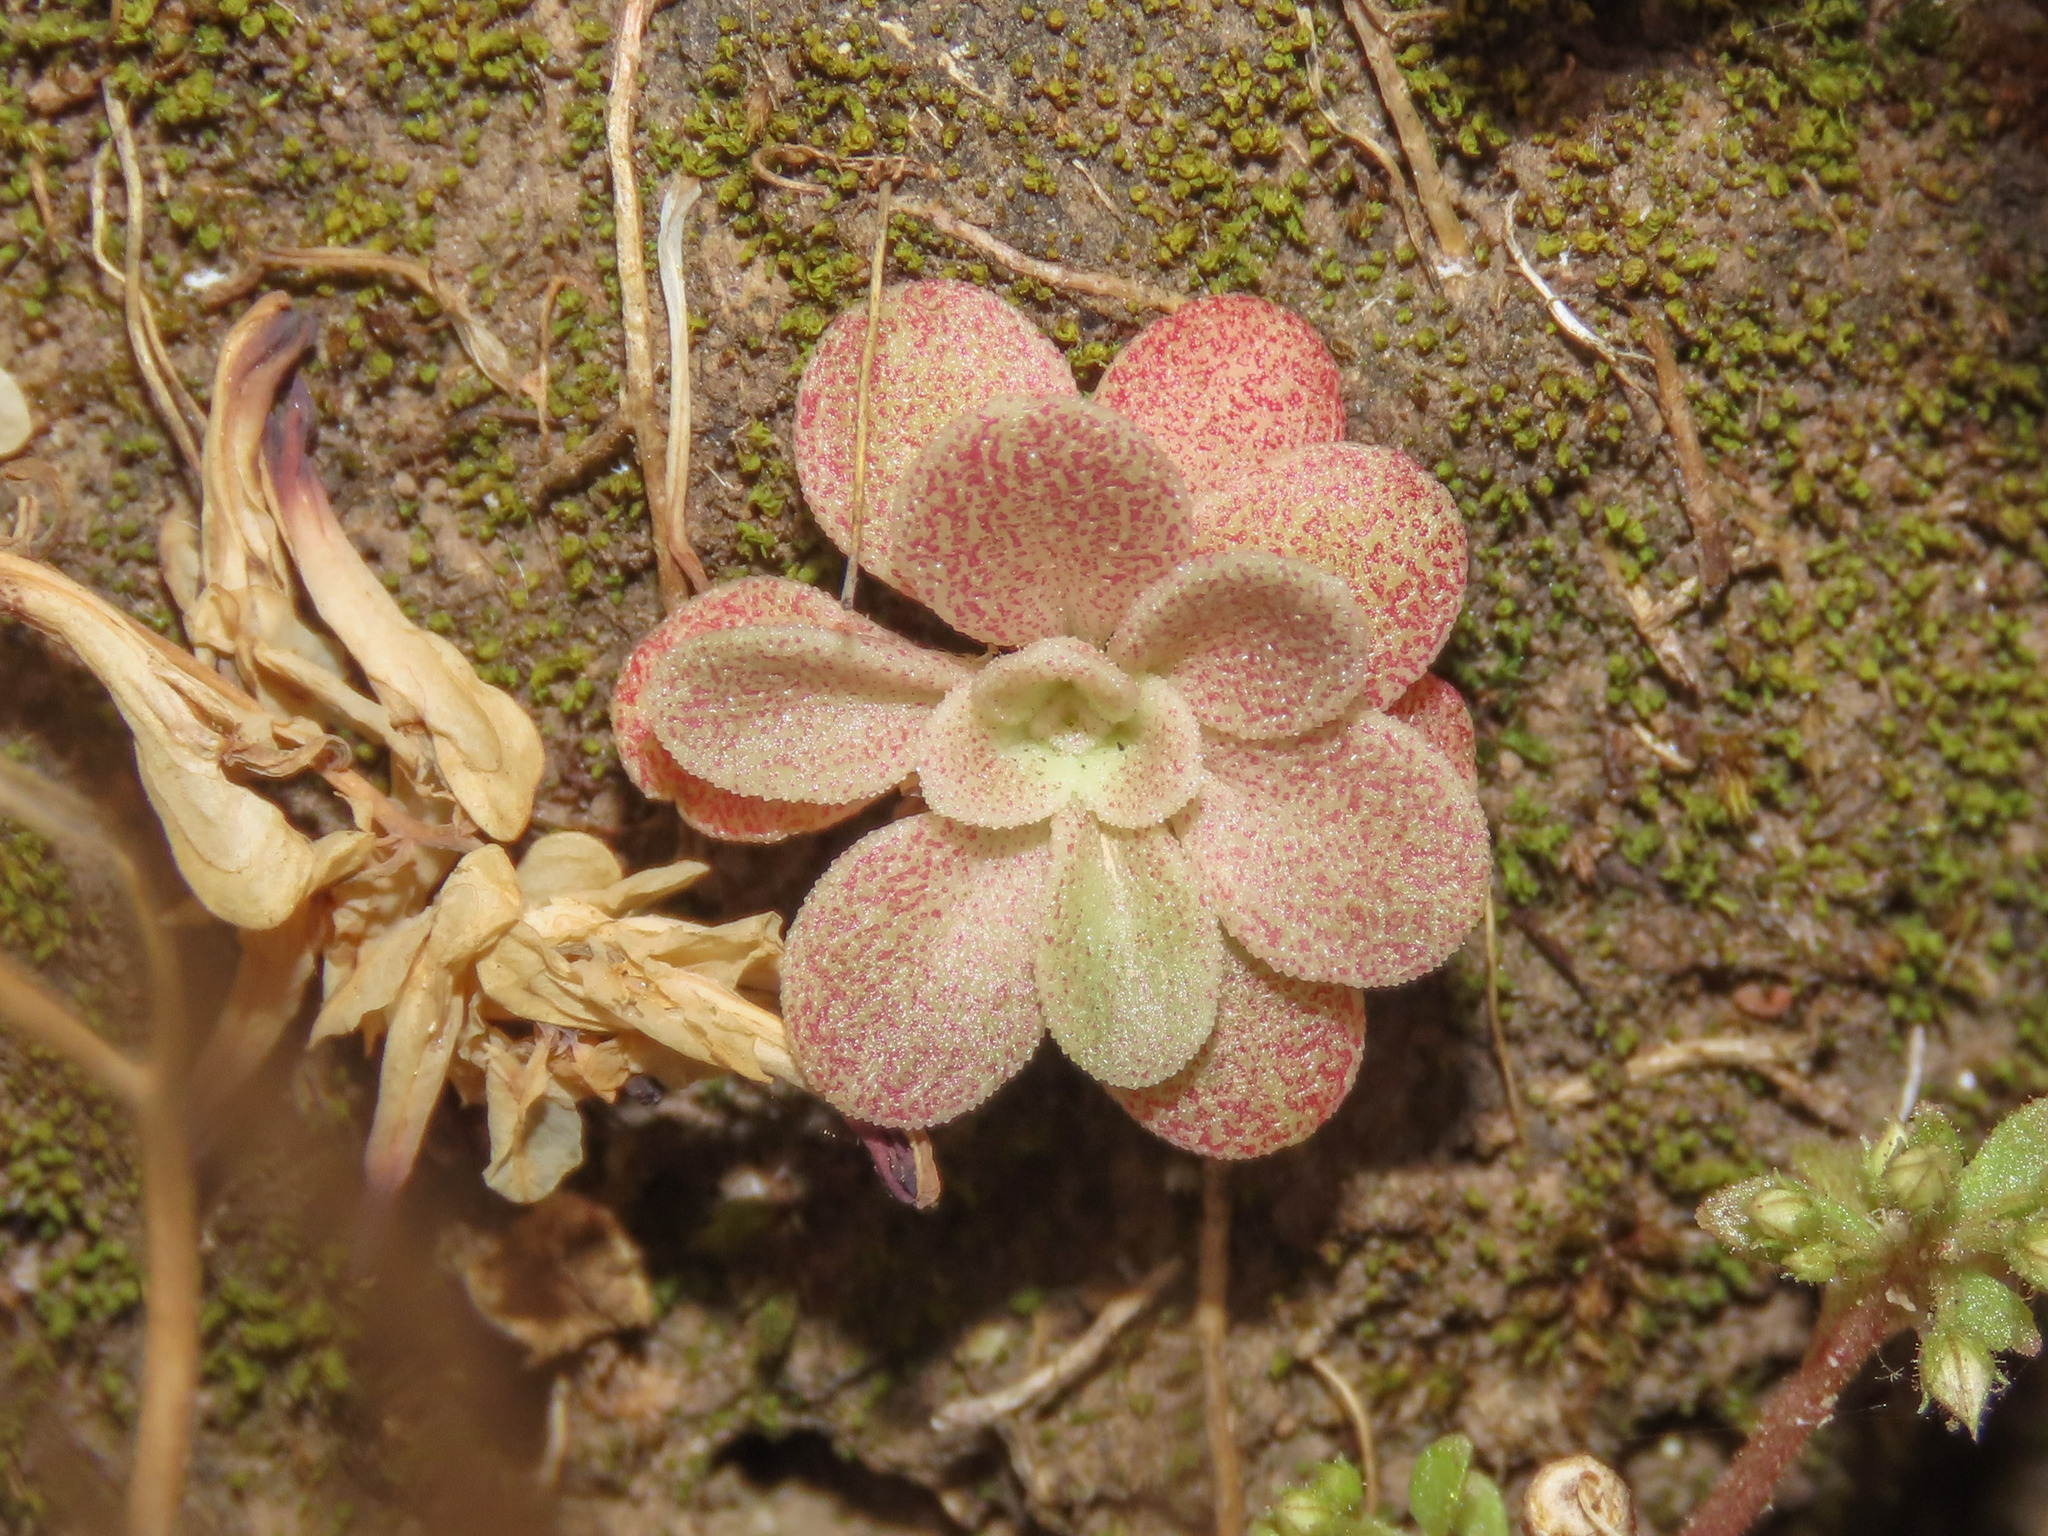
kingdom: Plantae
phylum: Tracheophyta
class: Magnoliopsida
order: Saxifragales
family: Crassulaceae
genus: Sedum
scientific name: Sedum cepaea
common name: Pink stonecrop
